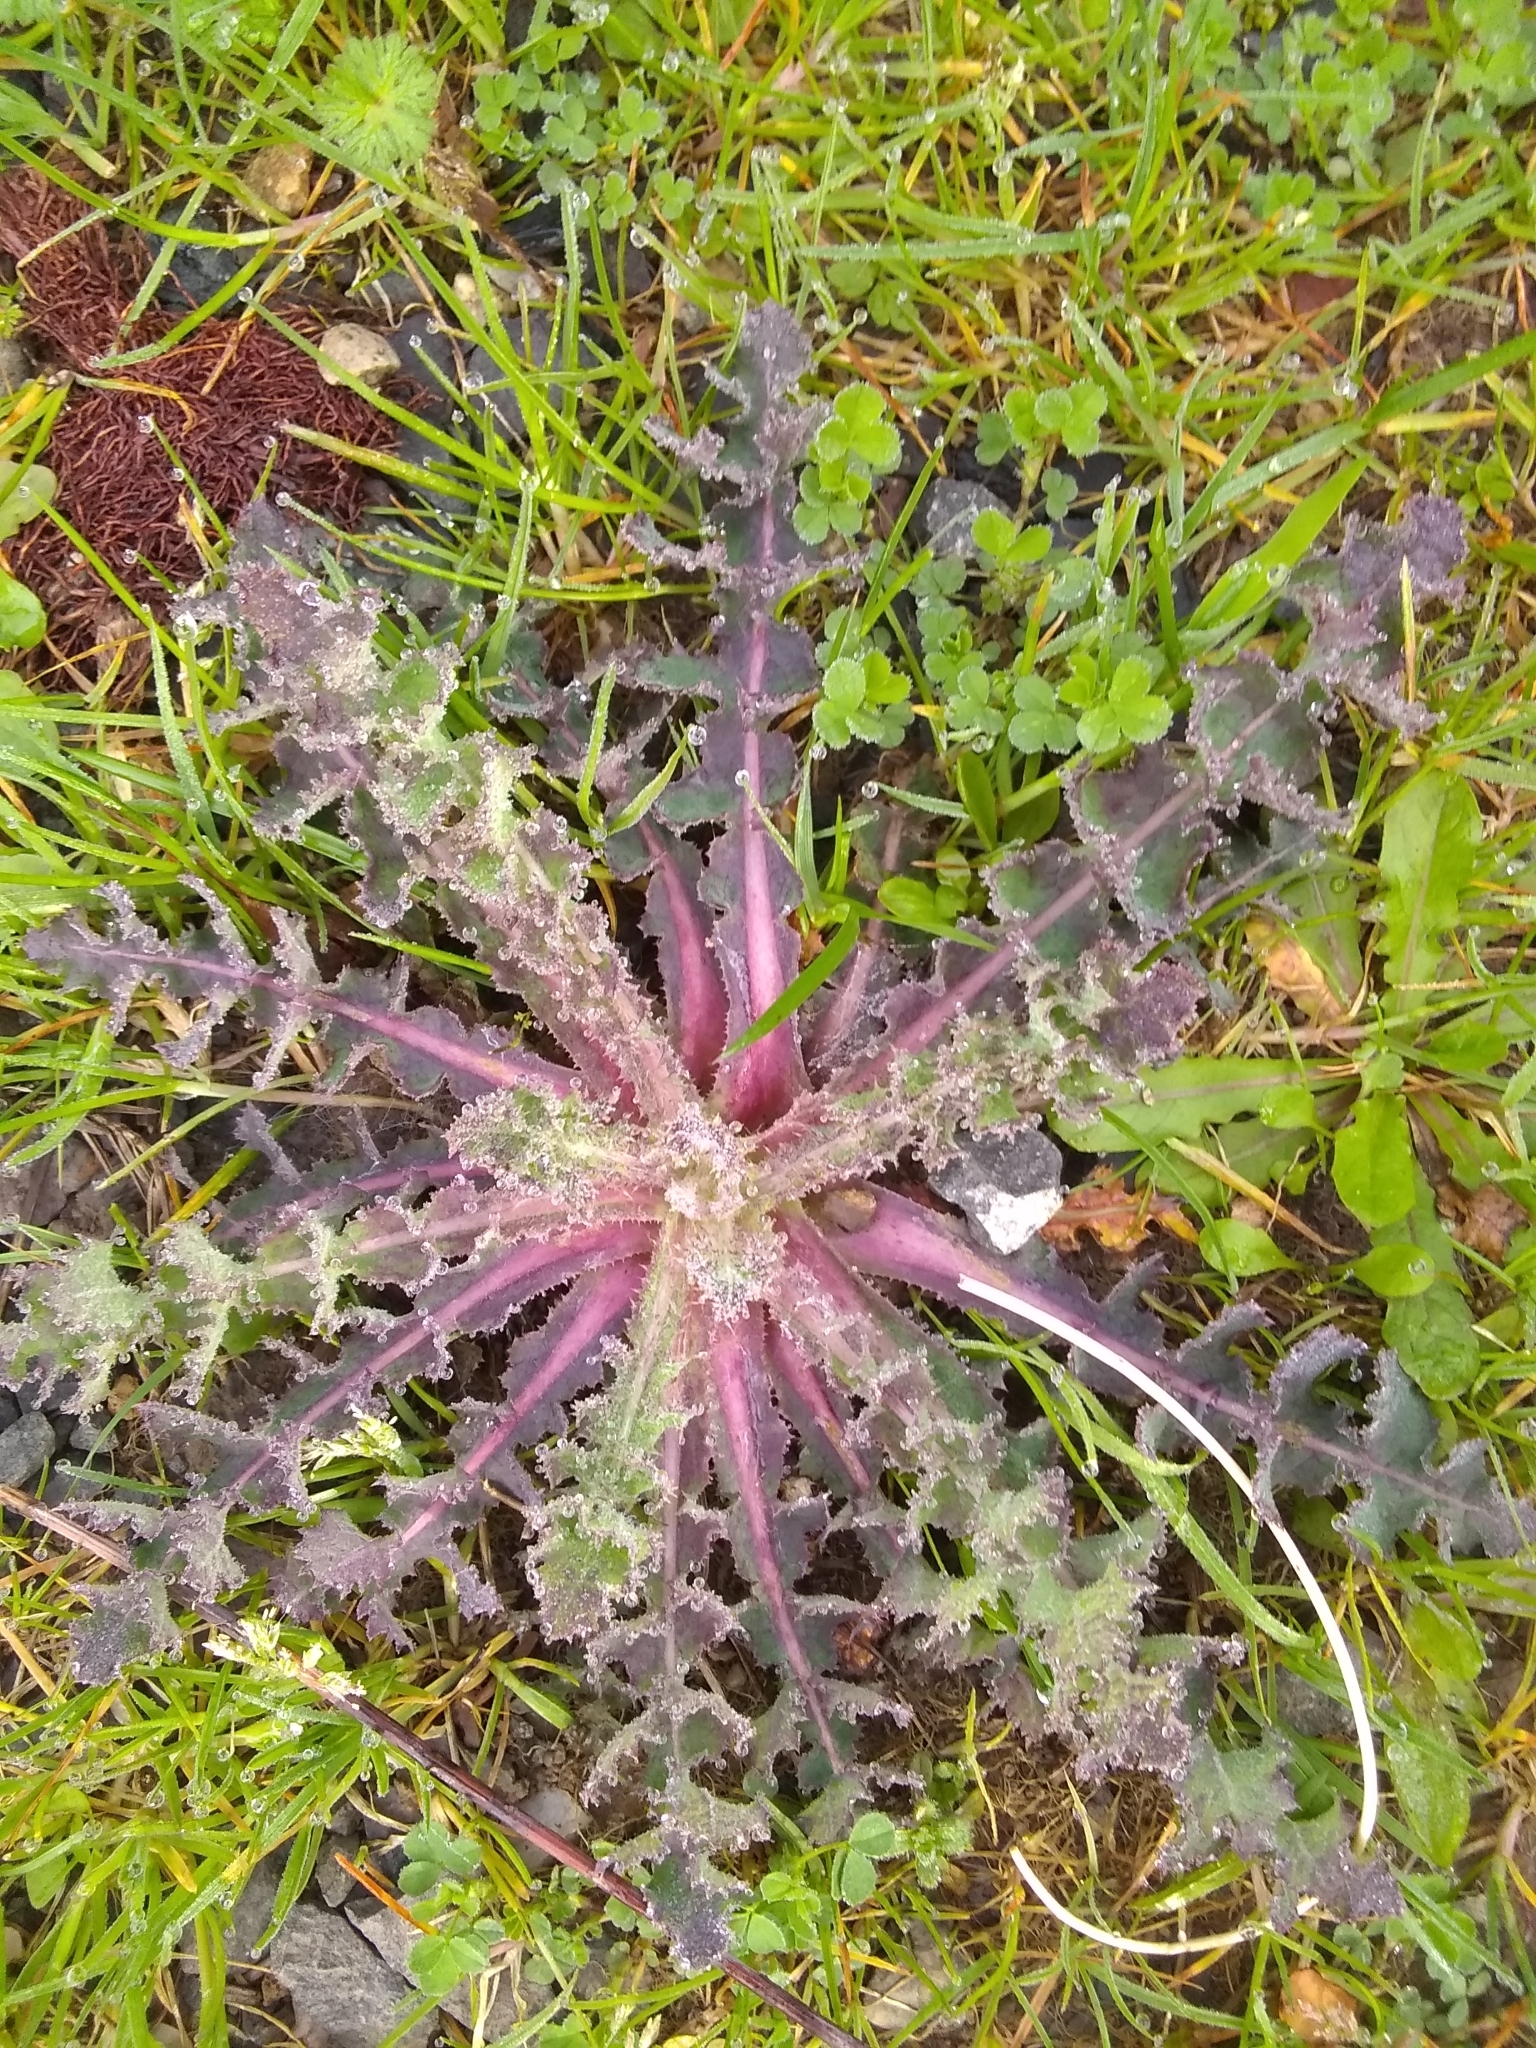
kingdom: Plantae
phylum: Tracheophyta
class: Magnoliopsida
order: Asterales
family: Asteraceae
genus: Sonchus
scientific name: Sonchus asper
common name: Prickly sow-thistle
